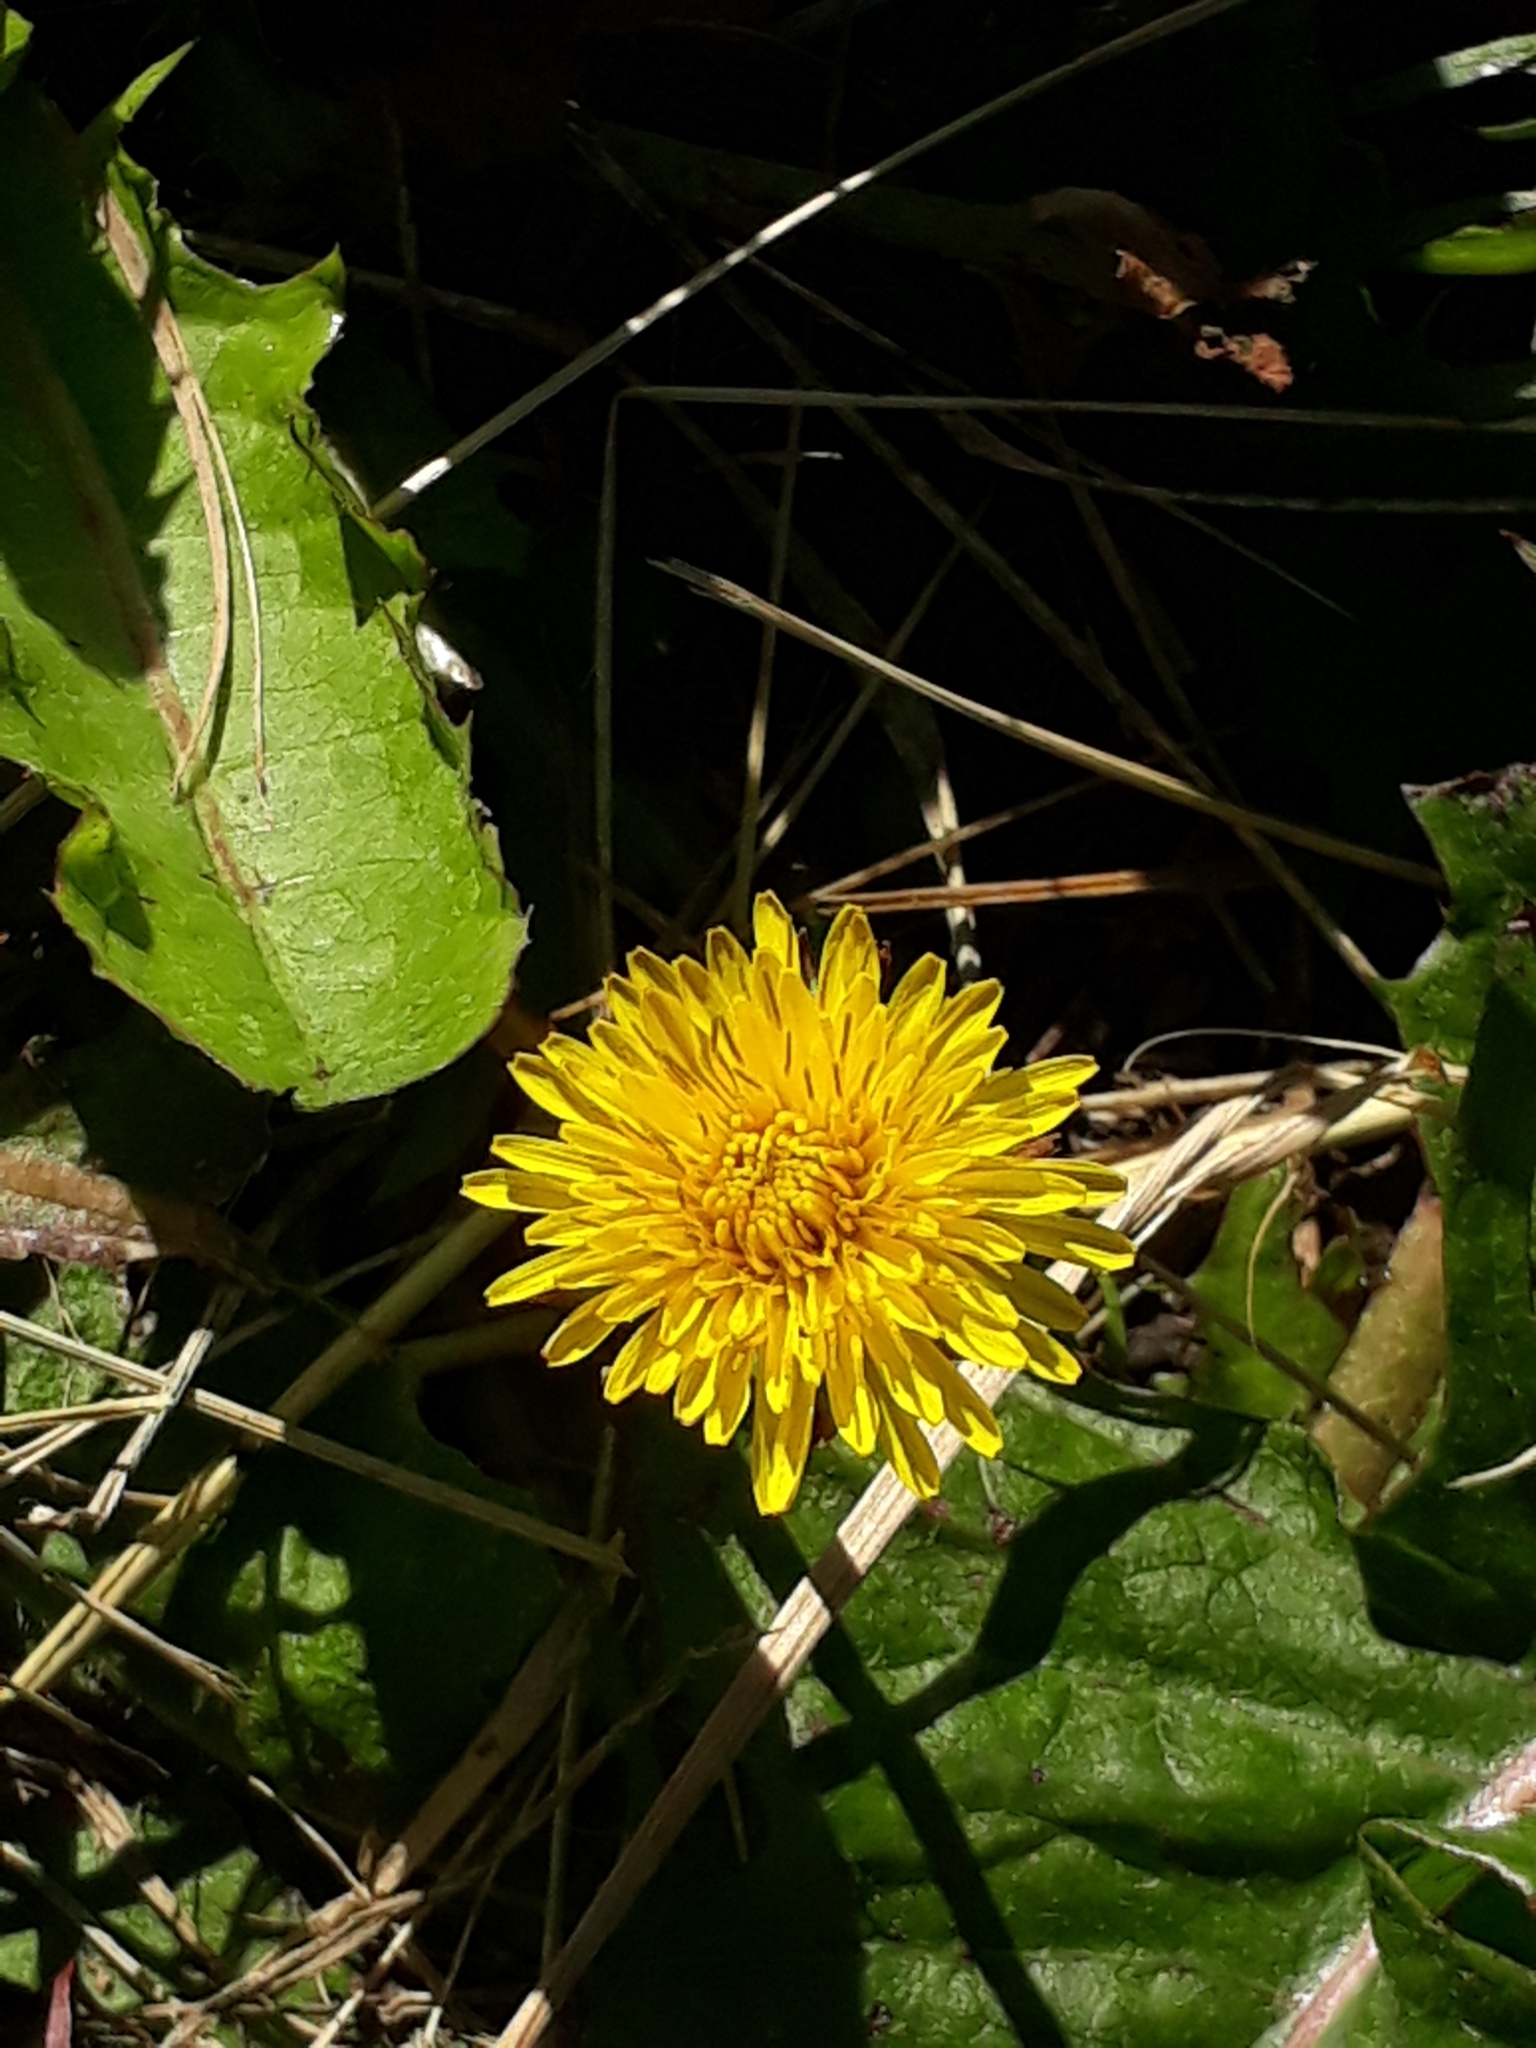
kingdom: Plantae
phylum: Tracheophyta
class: Magnoliopsida
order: Asterales
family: Asteraceae
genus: Taraxacum
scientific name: Taraxacum officinale
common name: Common dandelion
